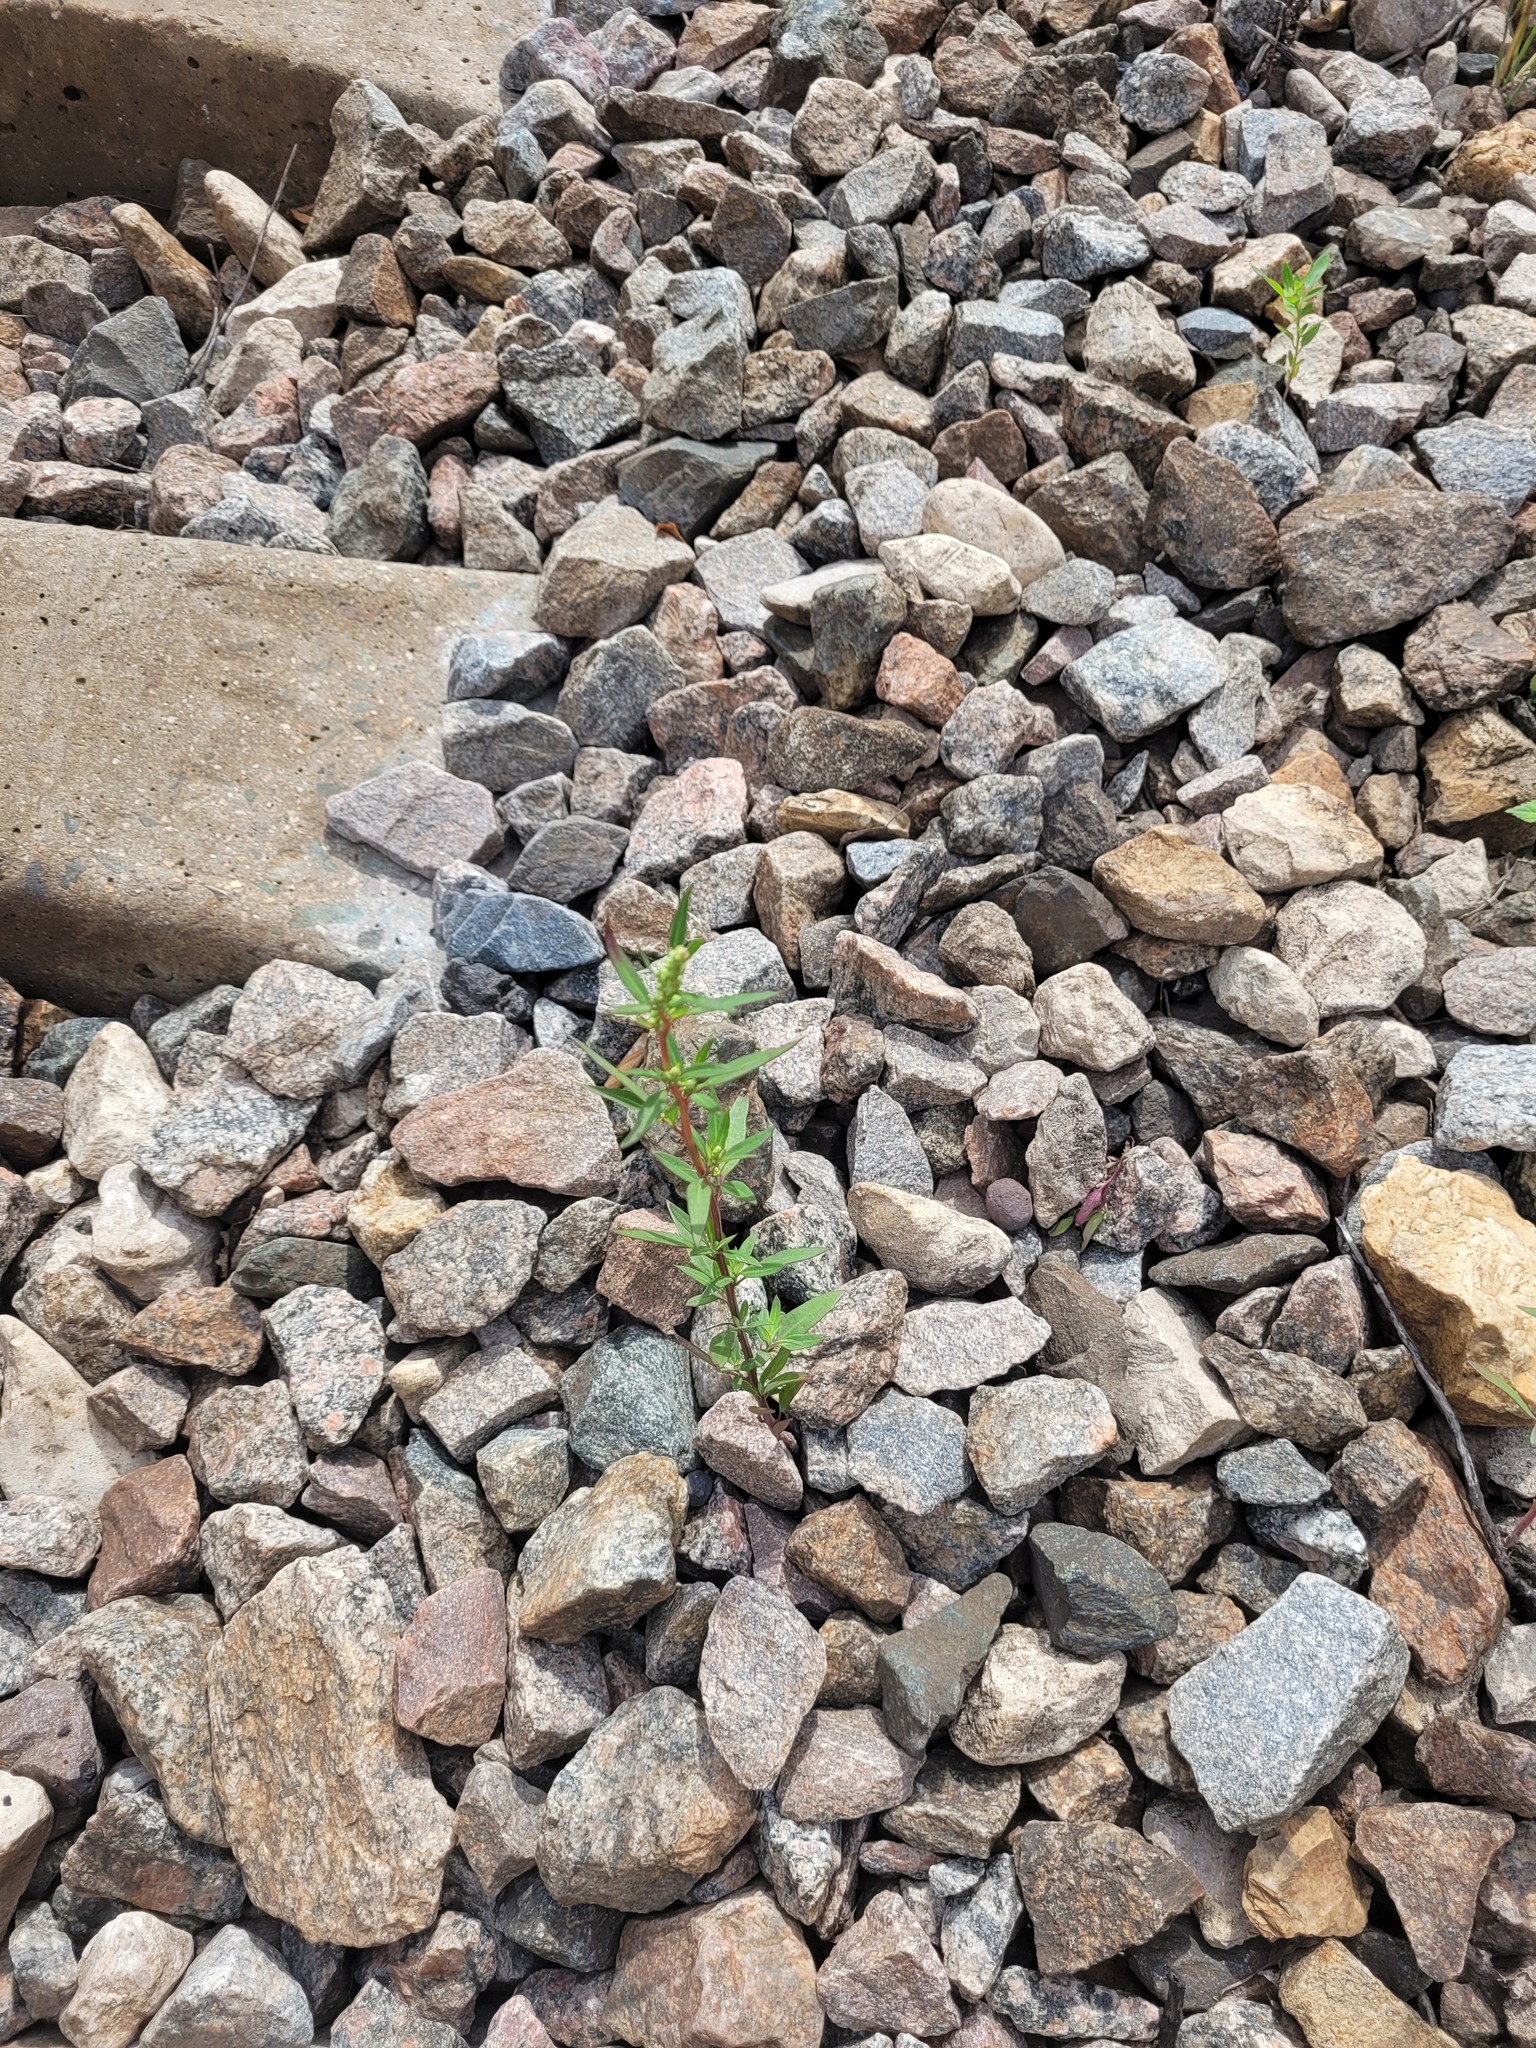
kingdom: Plantae
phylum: Tracheophyta
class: Magnoliopsida
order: Caryophyllales
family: Amaranthaceae
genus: Chenopodium
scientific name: Chenopodium betaceum
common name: Striped goosefoot
